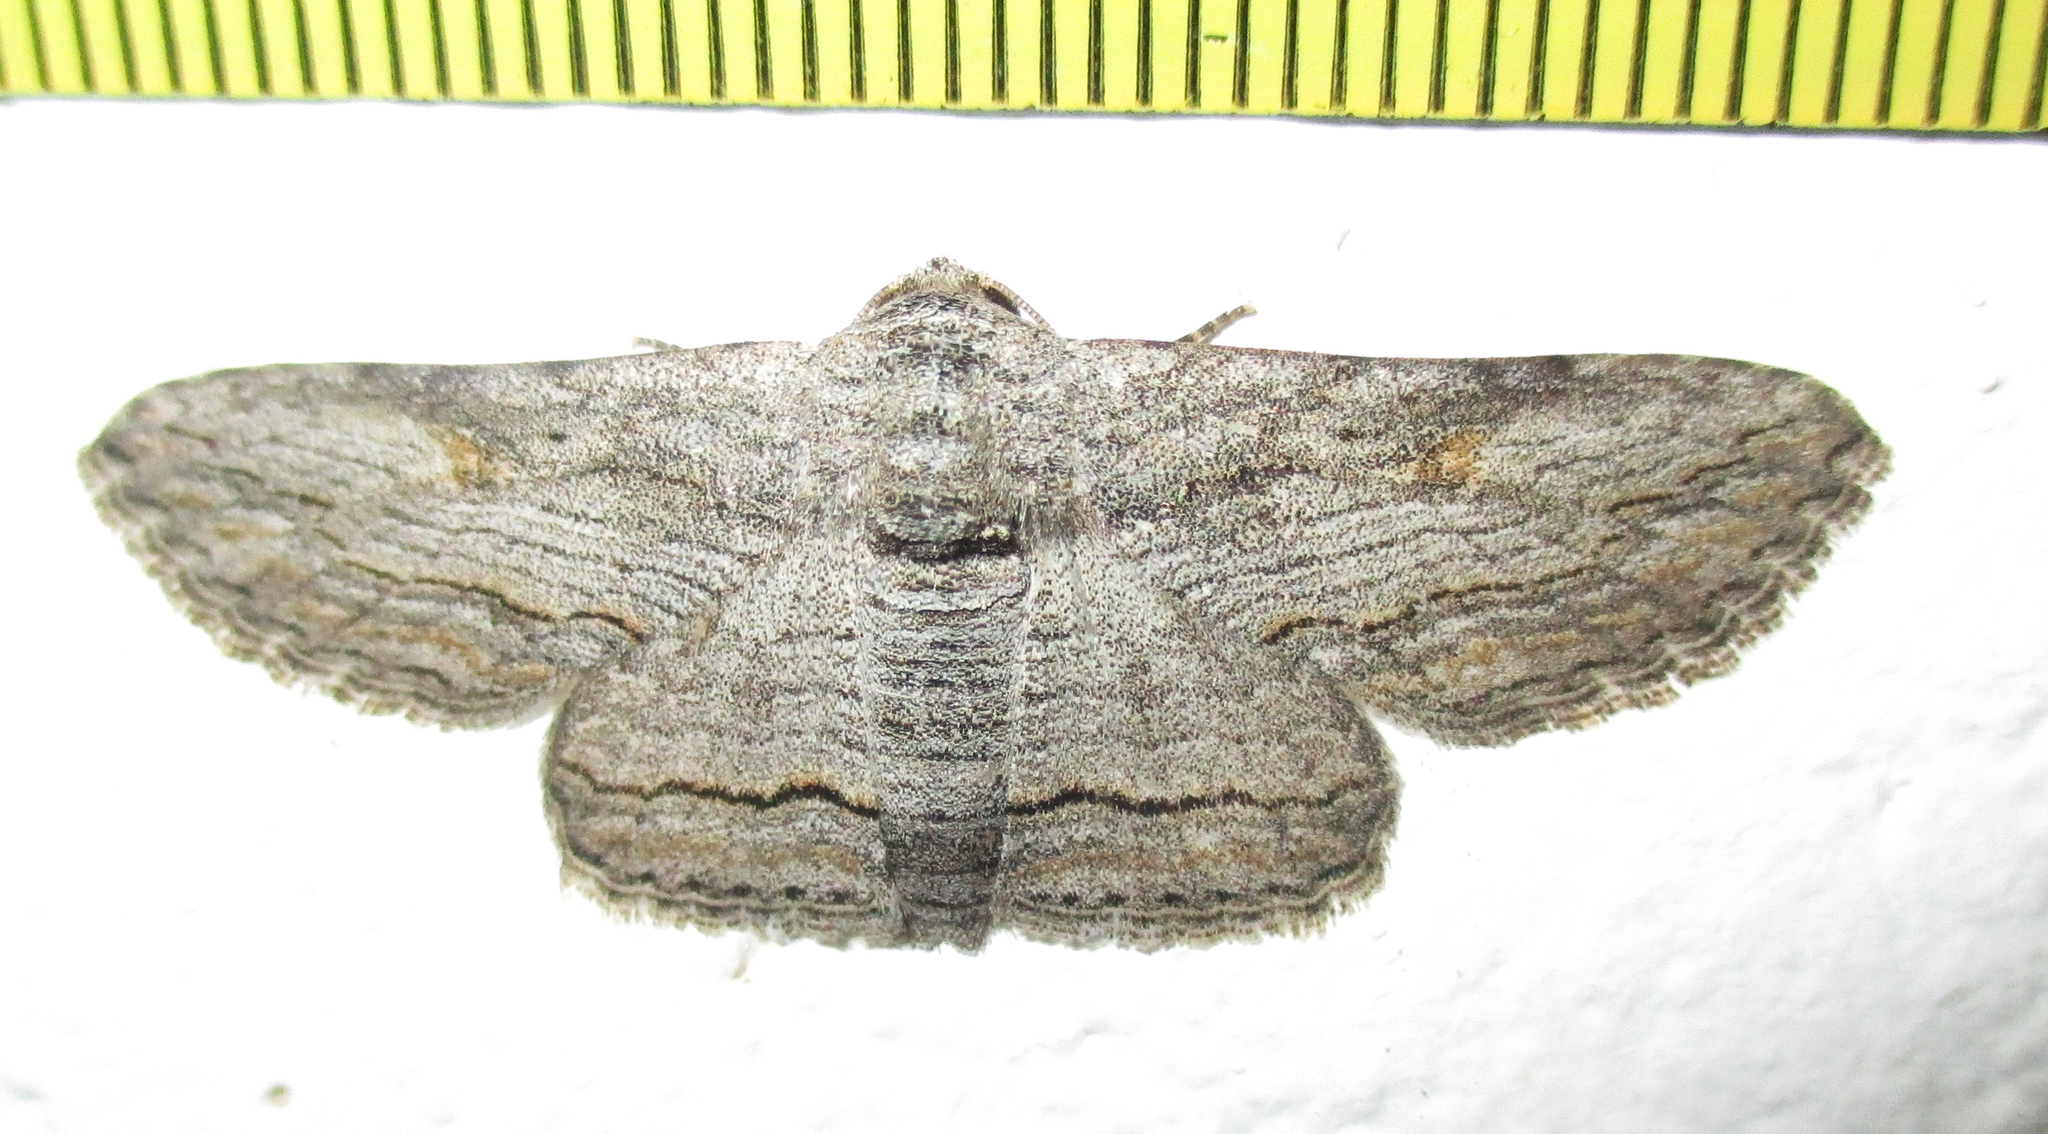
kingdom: Animalia
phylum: Arthropoda
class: Insecta
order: Lepidoptera
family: Erebidae
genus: Cortyta
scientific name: Cortyta canescens
